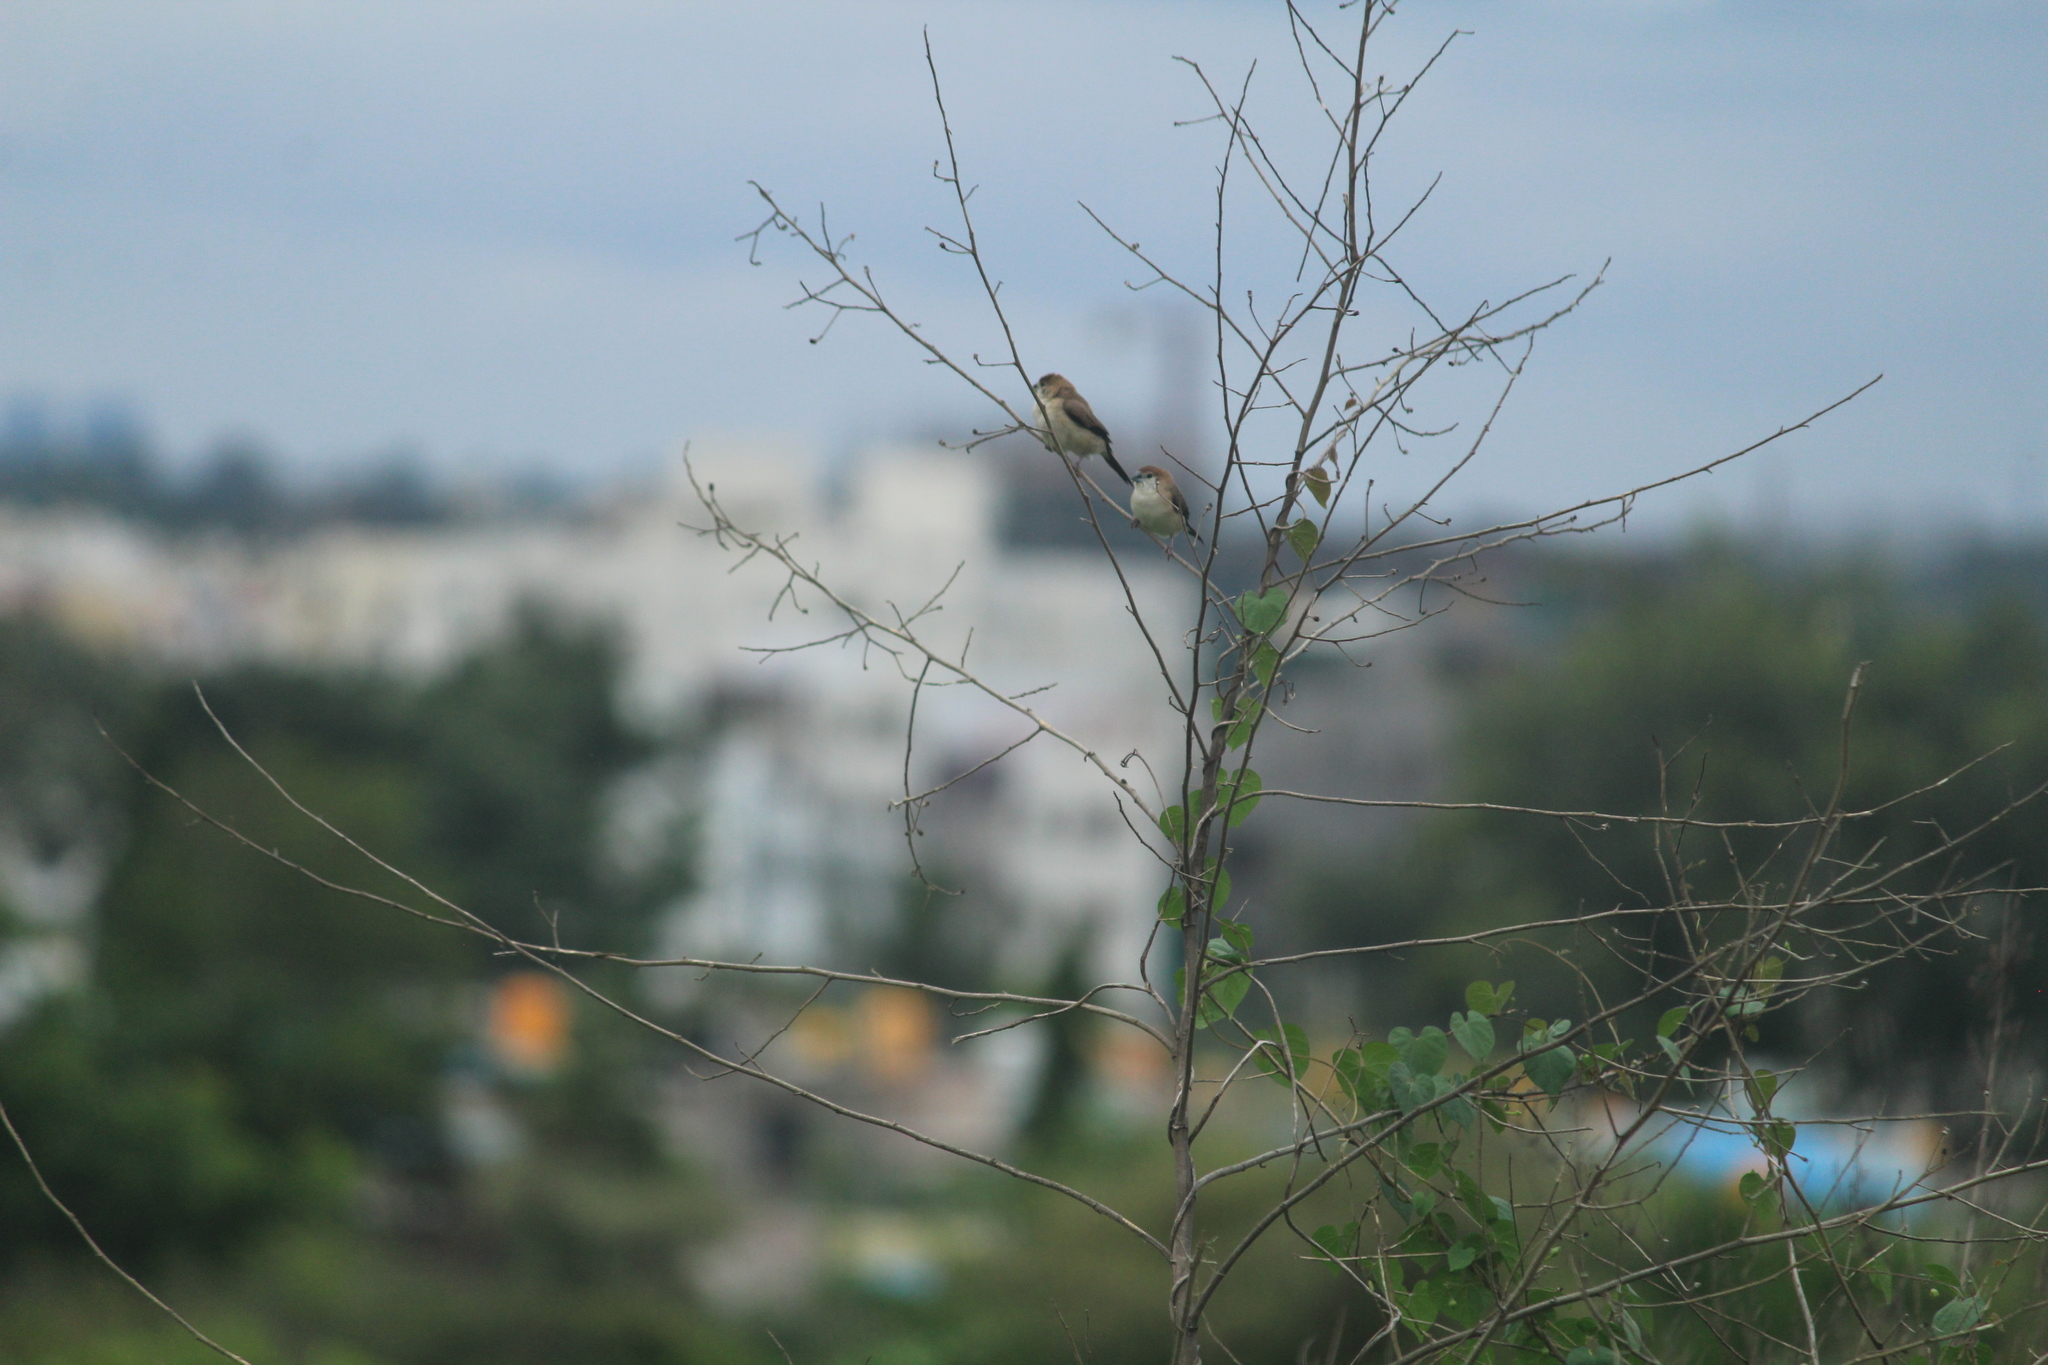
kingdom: Animalia
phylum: Chordata
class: Aves
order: Passeriformes
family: Estrildidae
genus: Euodice
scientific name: Euodice malabarica
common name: Indian silverbill
